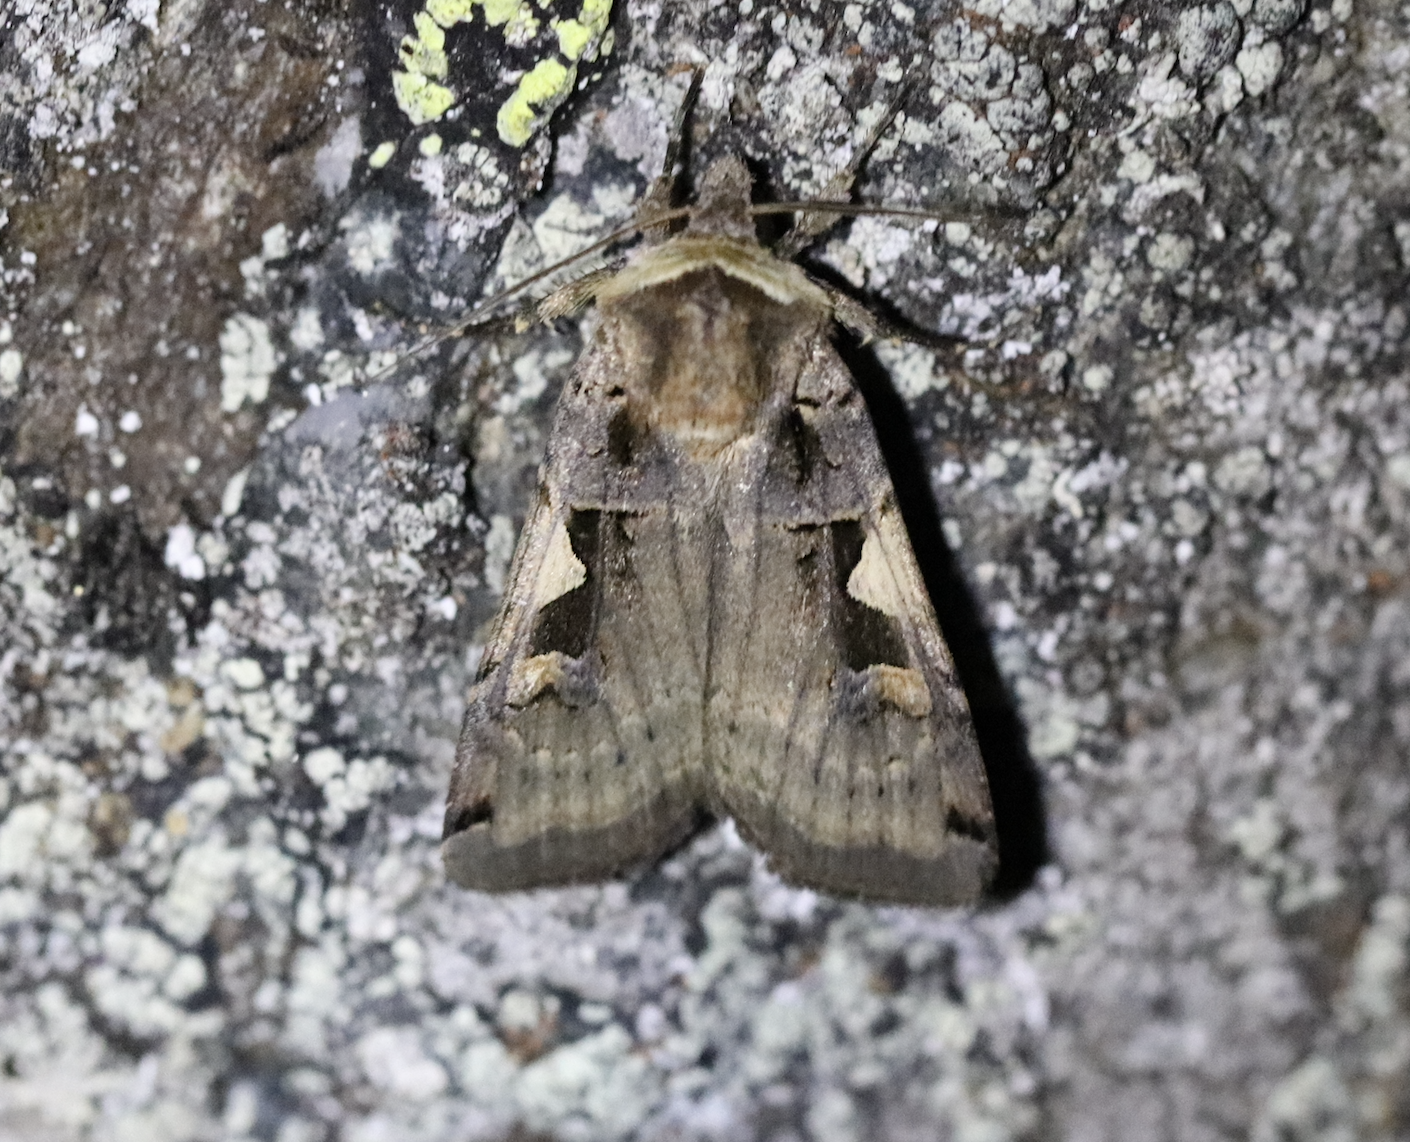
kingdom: Animalia
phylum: Arthropoda
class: Insecta
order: Lepidoptera
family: Noctuidae
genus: Xestia
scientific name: Xestia c-nigrum
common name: Setaceous hebrew character
